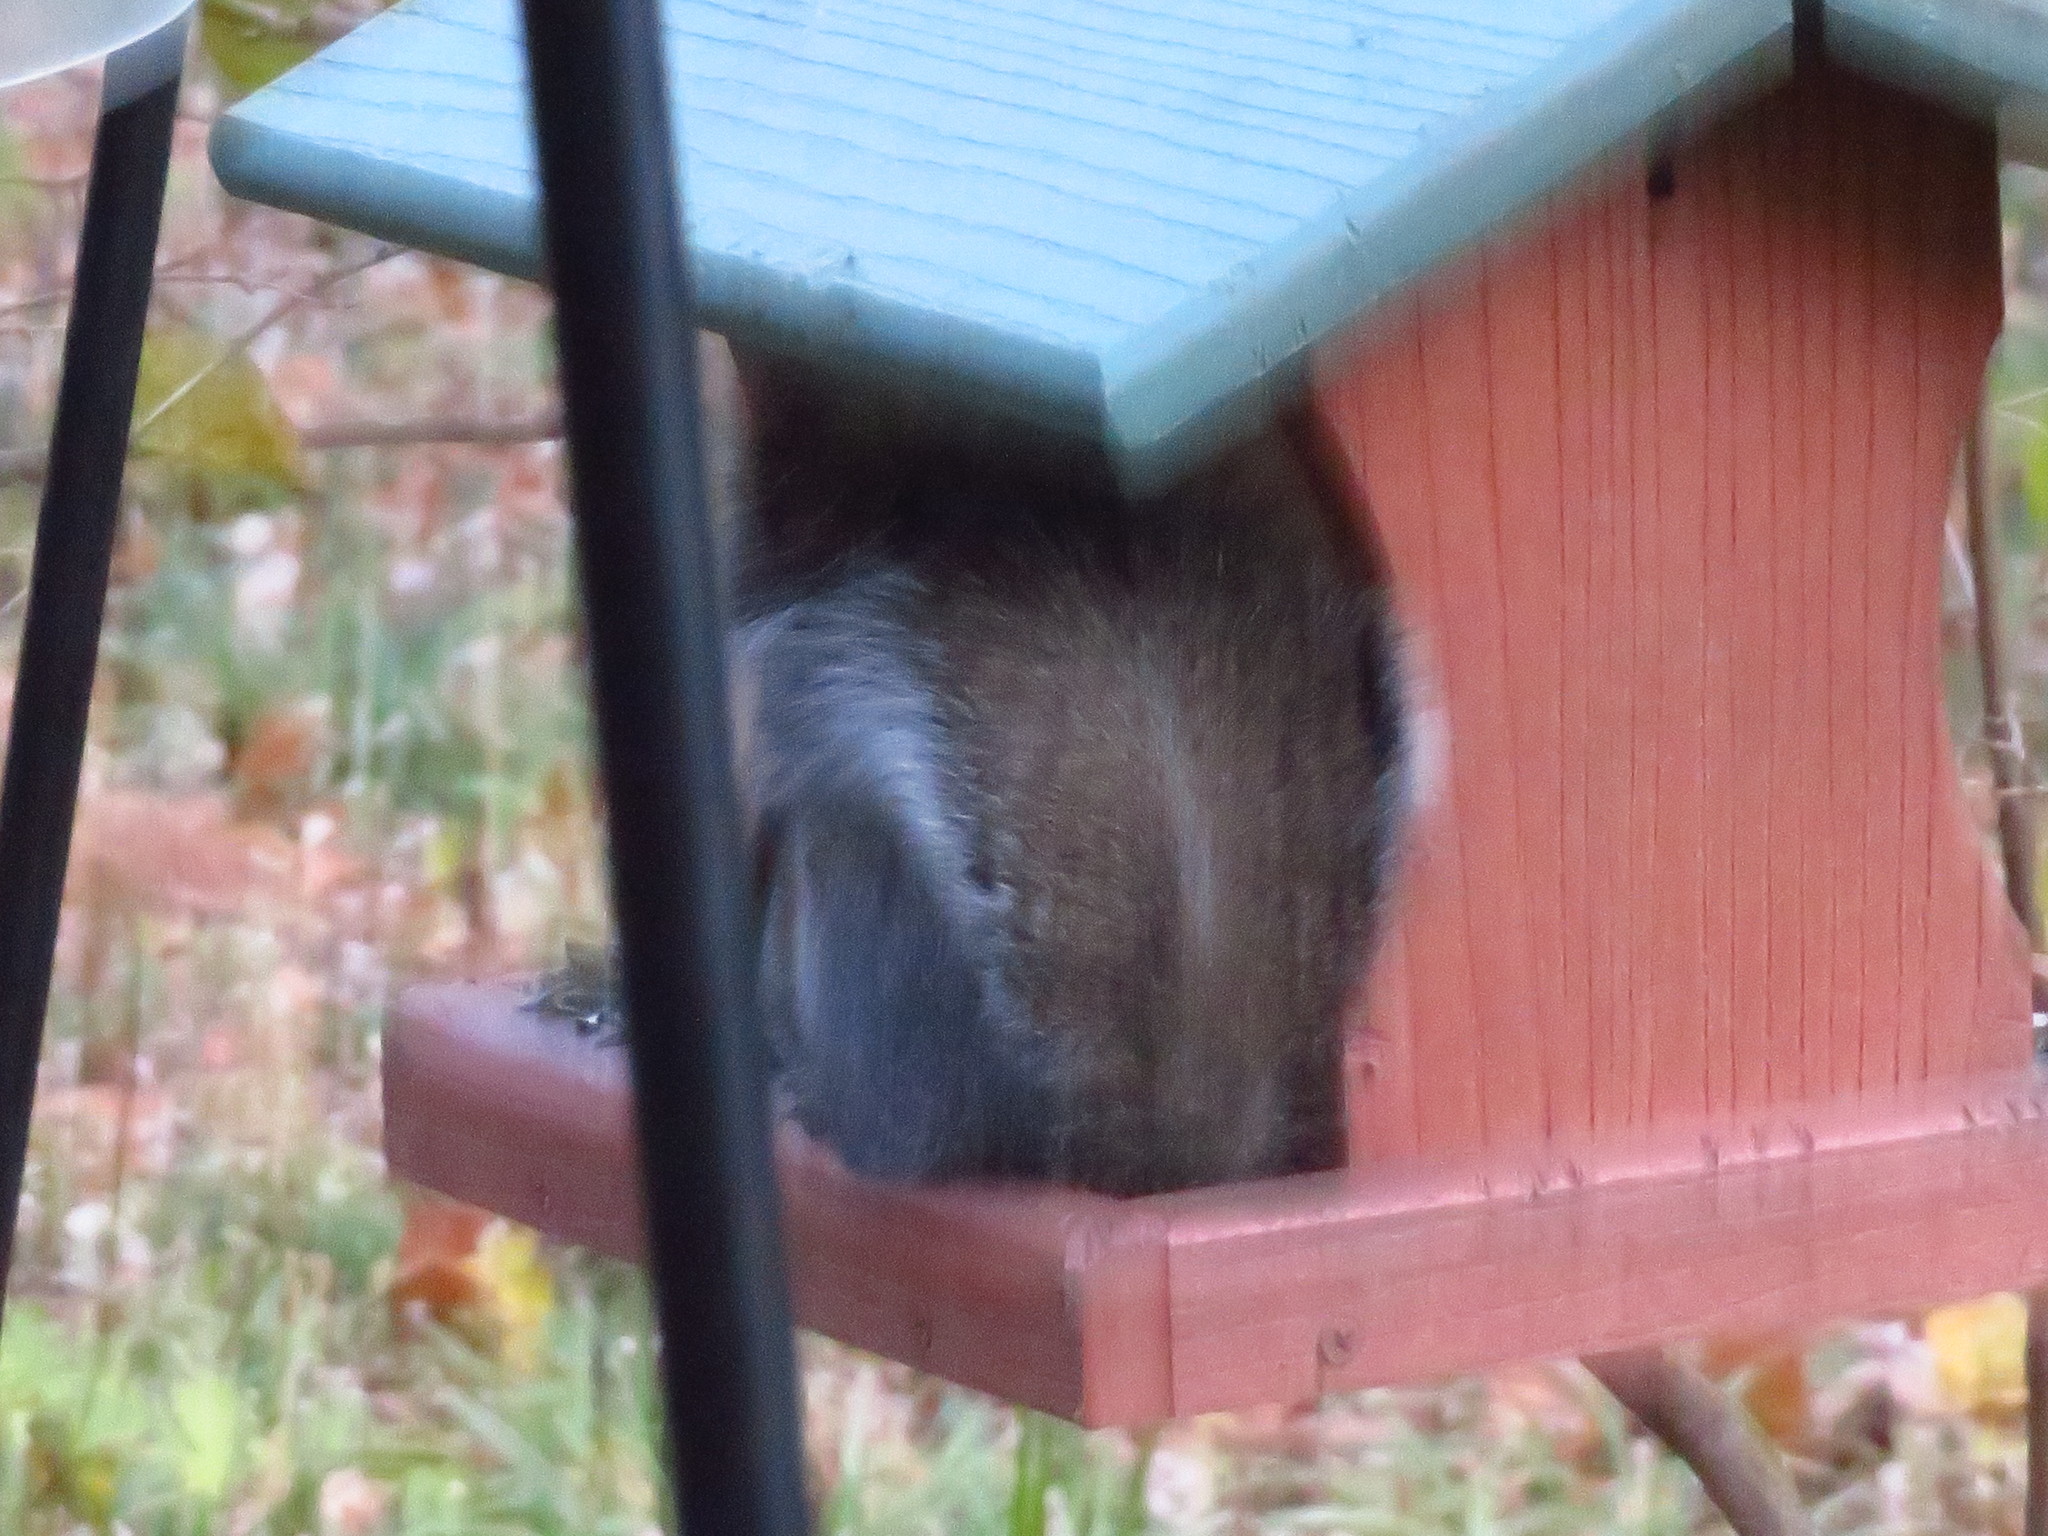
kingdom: Animalia
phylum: Chordata
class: Mammalia
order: Rodentia
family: Sciuridae
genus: Sciurus
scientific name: Sciurus carolinensis
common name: Eastern gray squirrel
